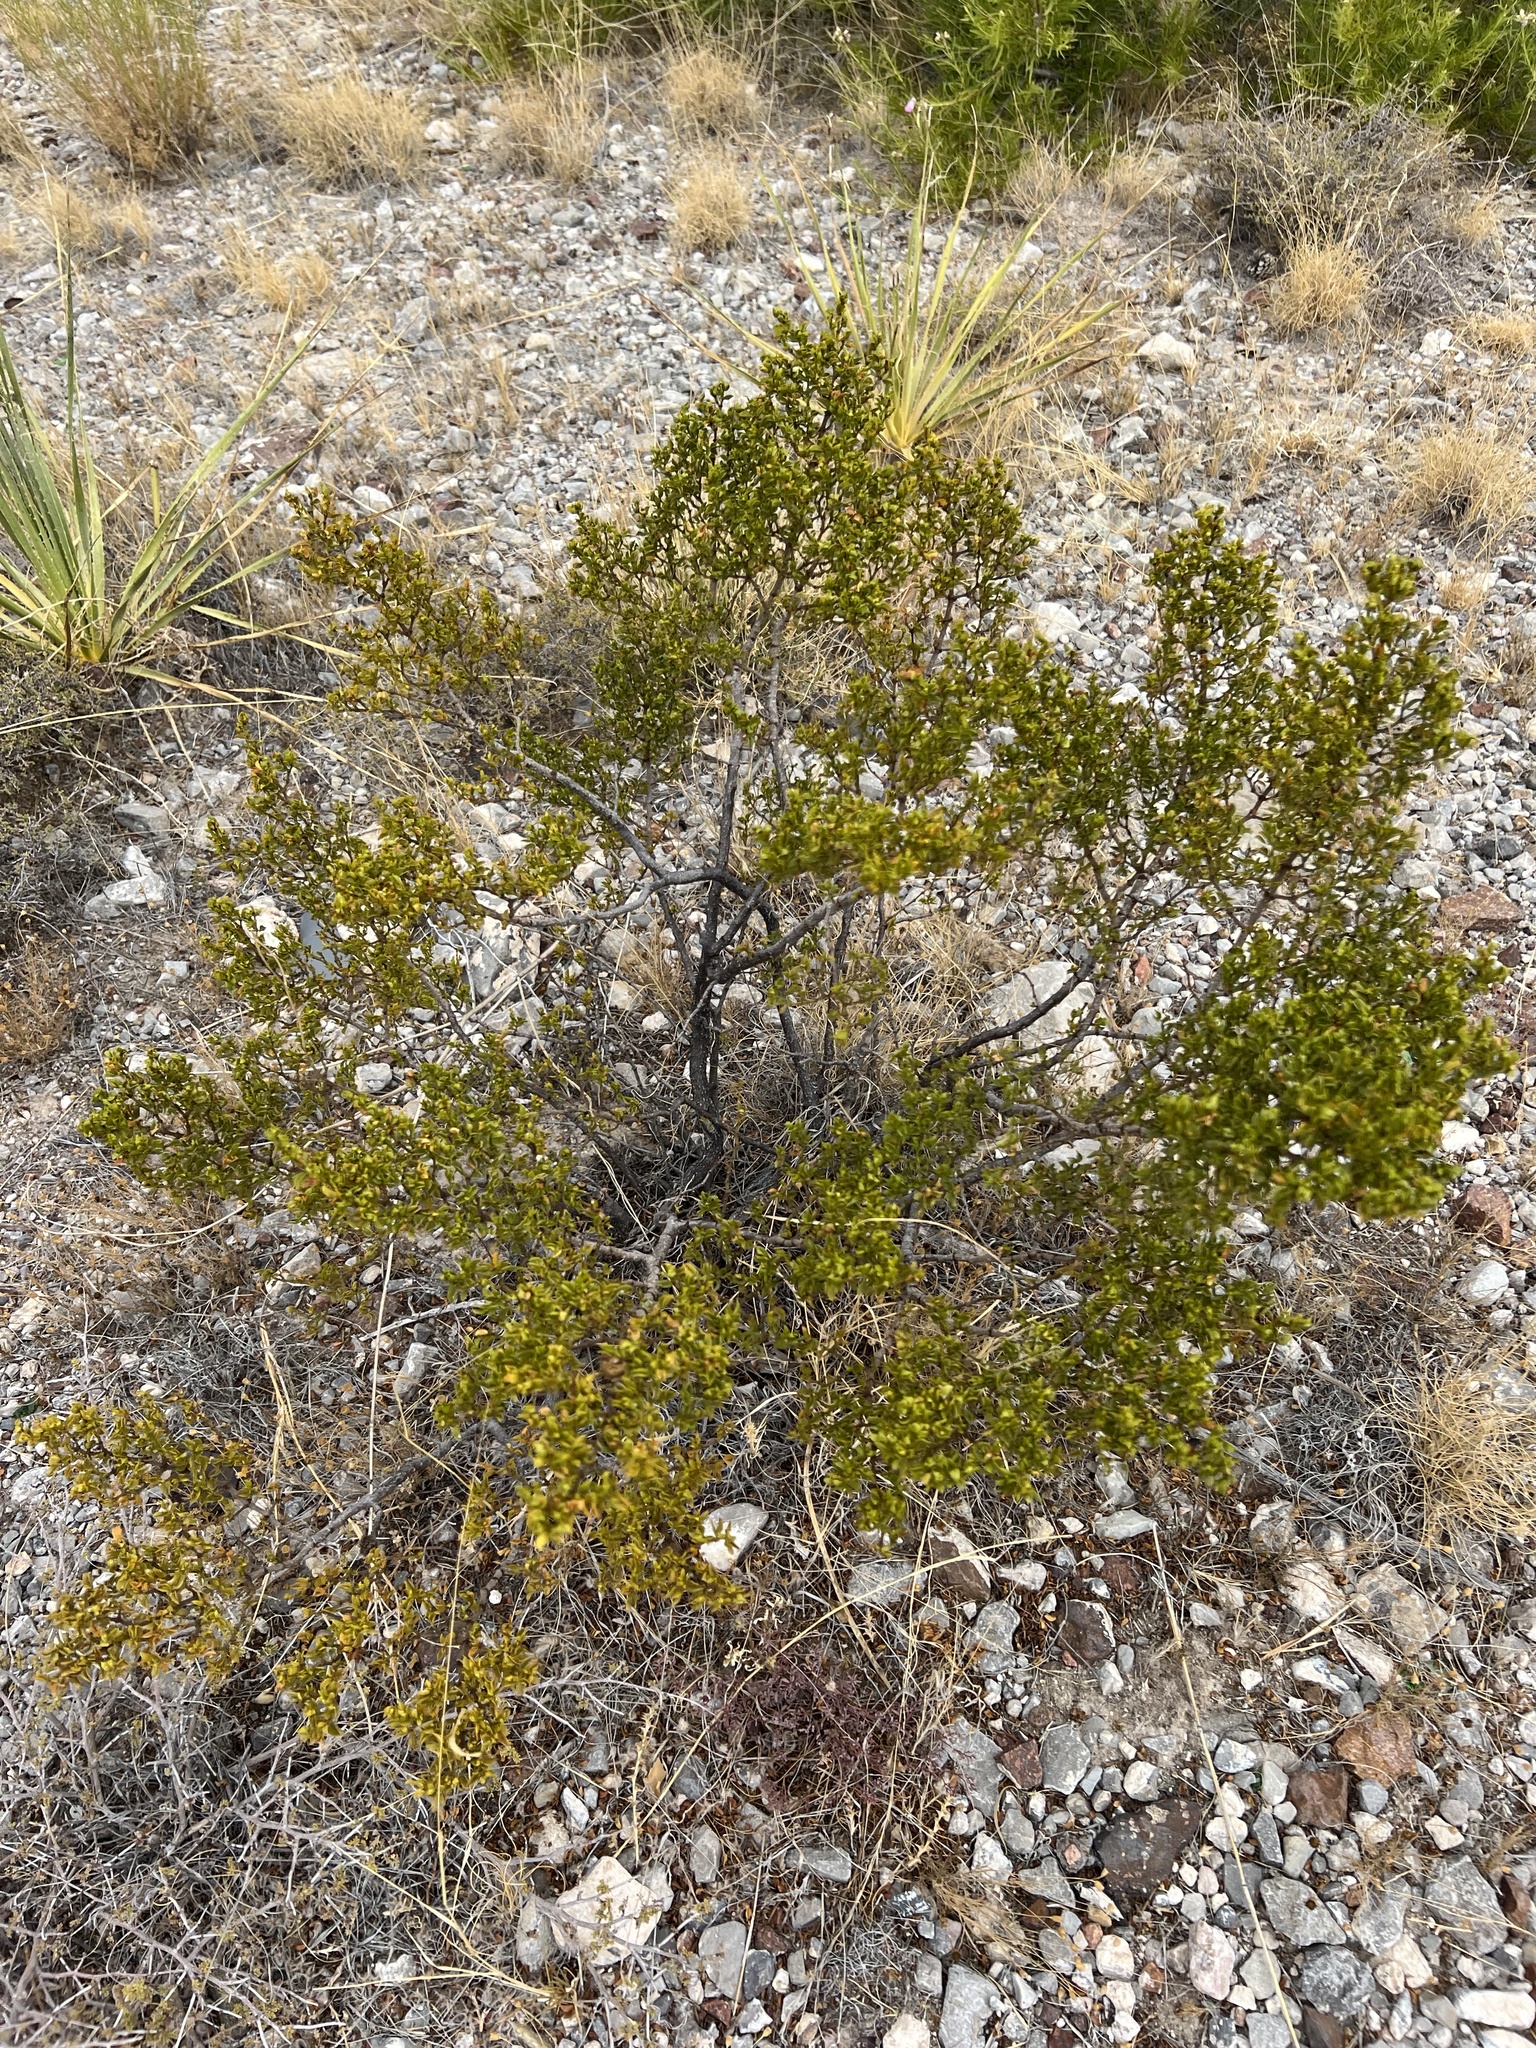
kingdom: Plantae
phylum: Tracheophyta
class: Magnoliopsida
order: Zygophyllales
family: Zygophyllaceae
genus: Larrea
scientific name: Larrea tridentata
